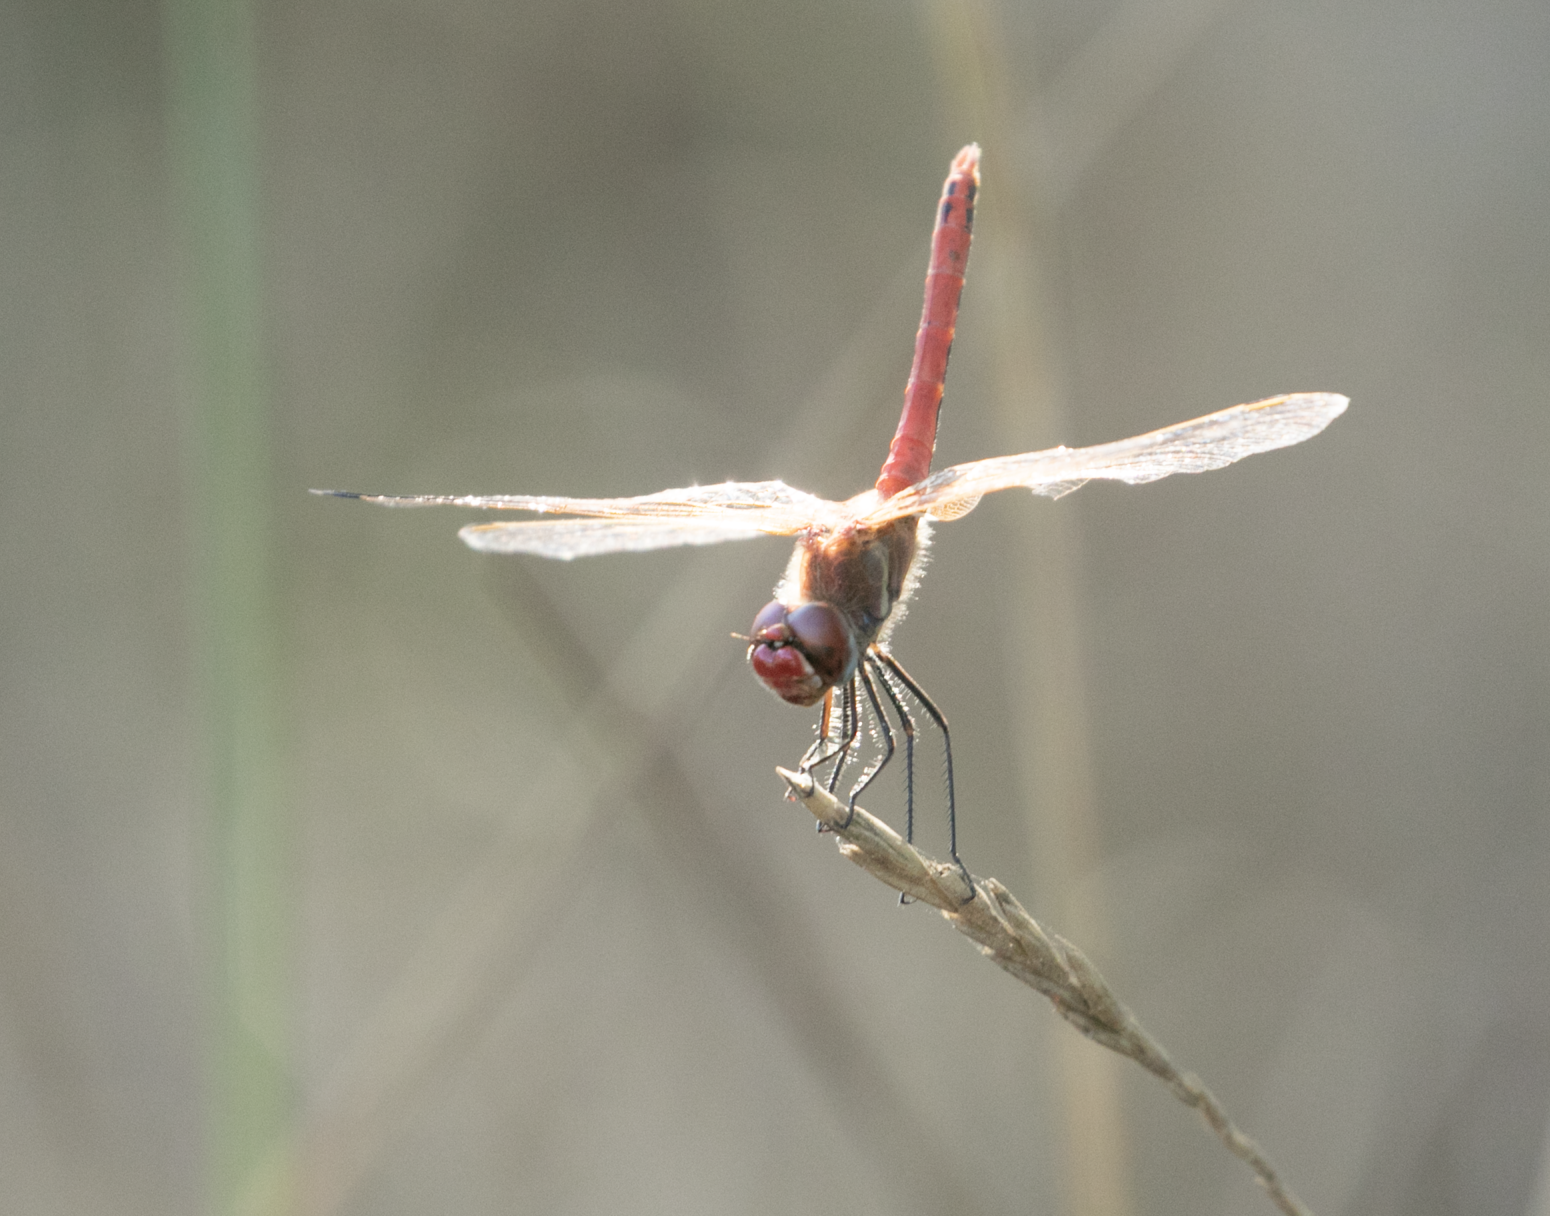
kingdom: Animalia
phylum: Arthropoda
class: Insecta
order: Odonata
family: Libellulidae
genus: Sympetrum
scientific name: Sympetrum fonscolombii
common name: Red-veined darter
